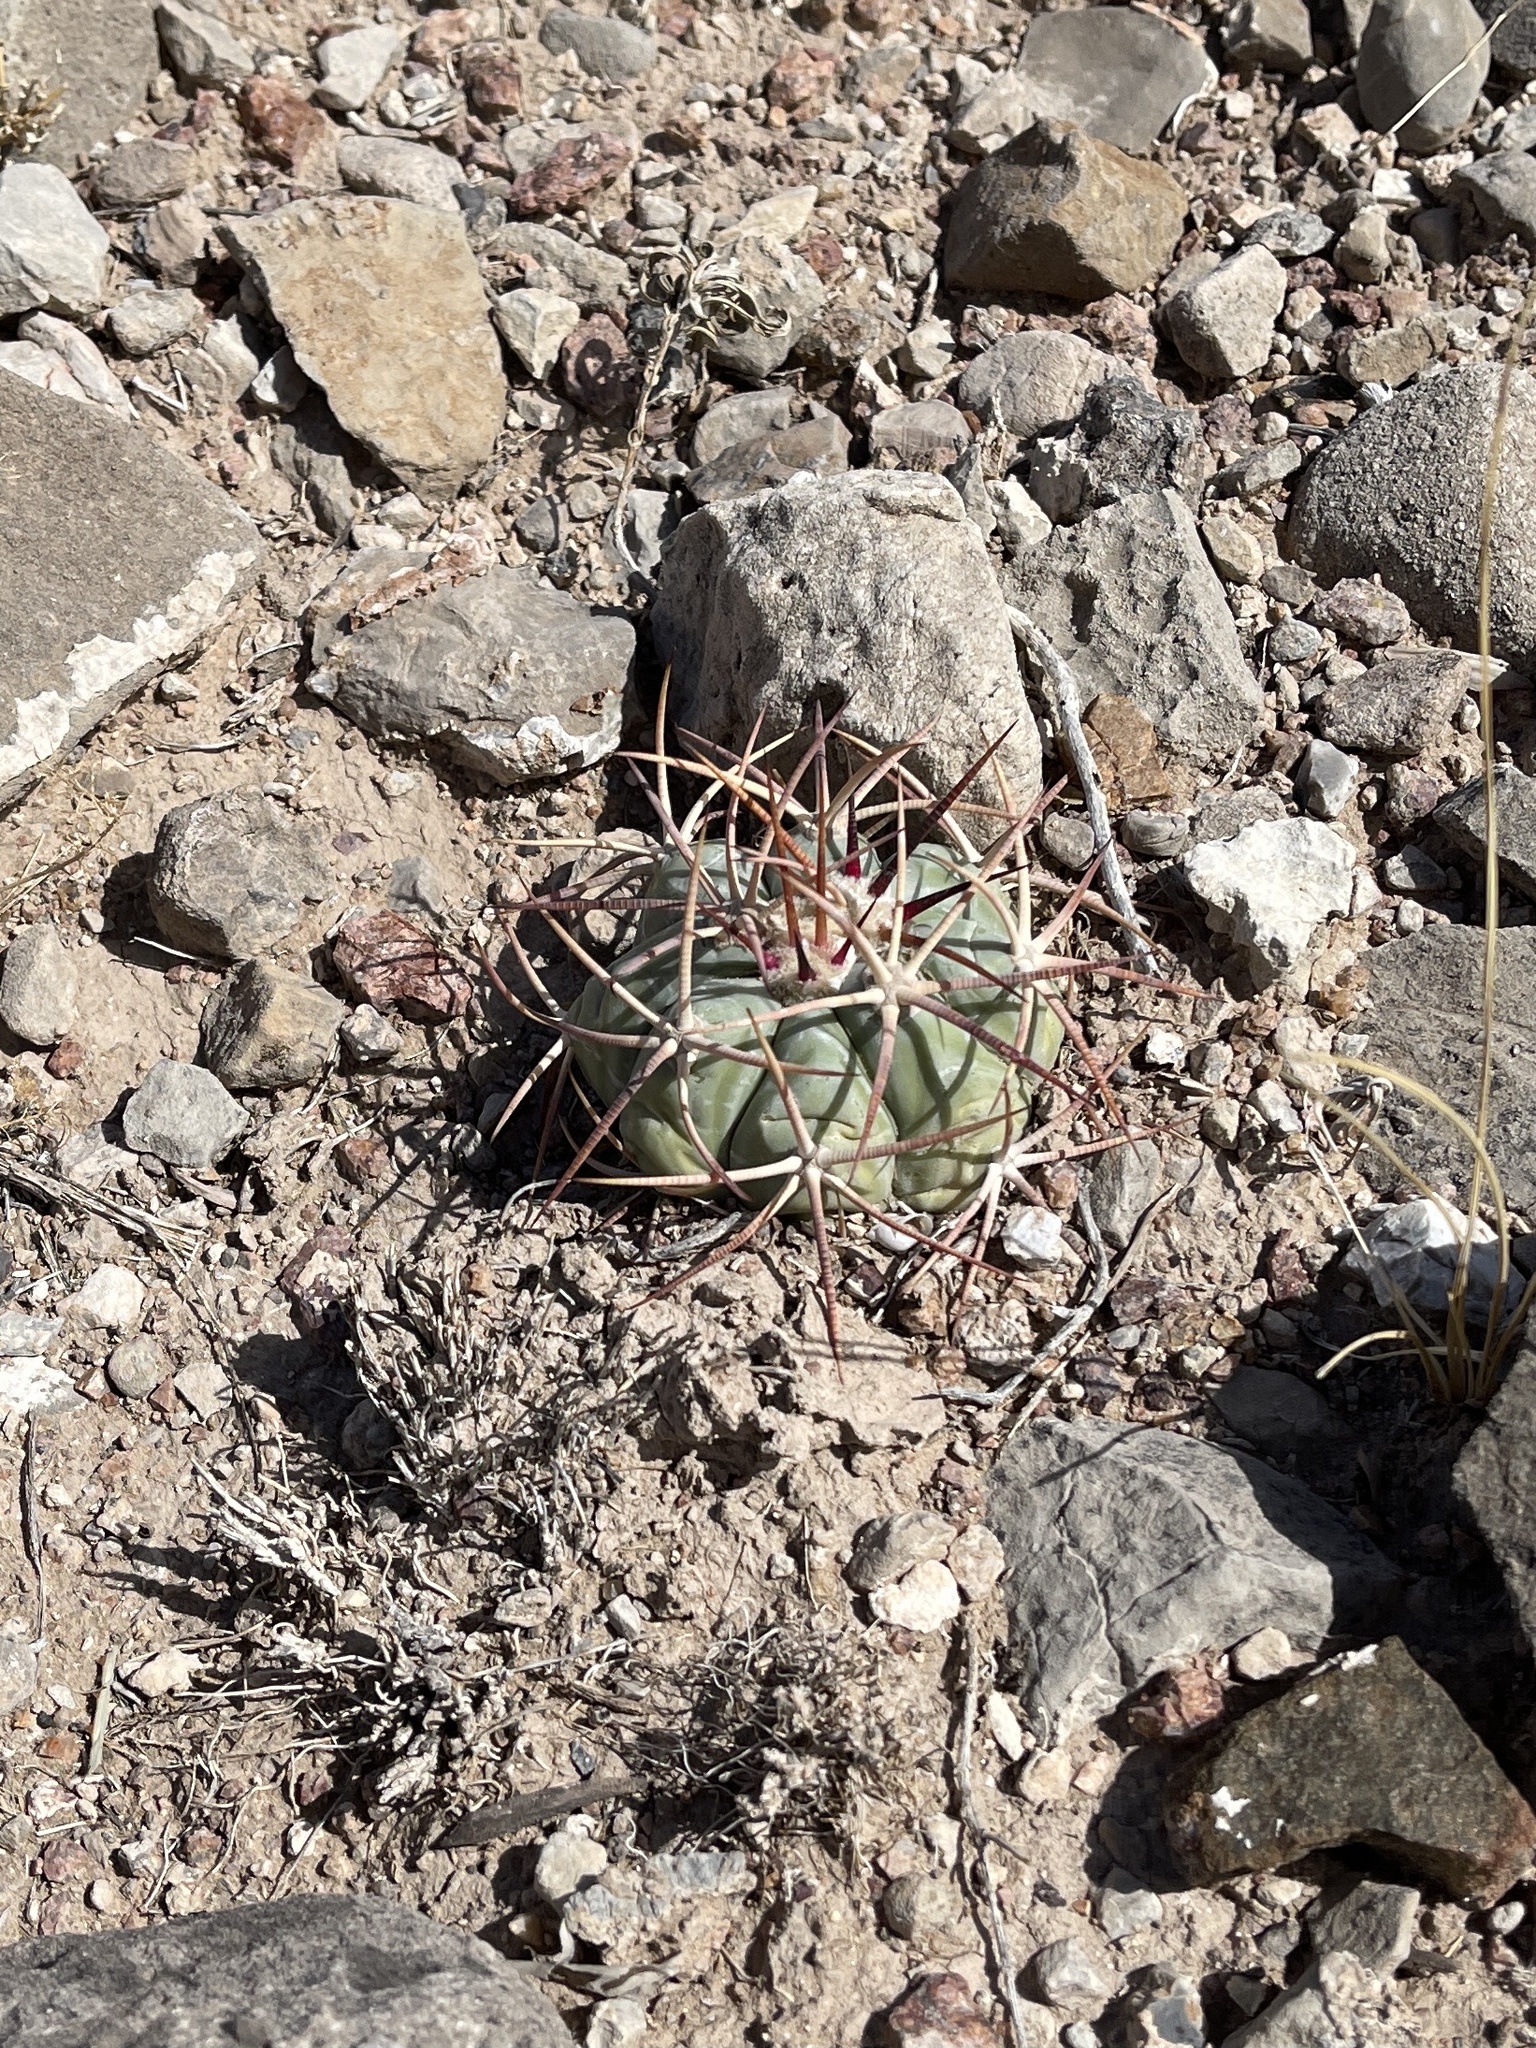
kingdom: Plantae
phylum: Tracheophyta
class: Magnoliopsida
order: Caryophyllales
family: Cactaceae
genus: Echinocactus
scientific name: Echinocactus horizonthalonius
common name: Devilshead
